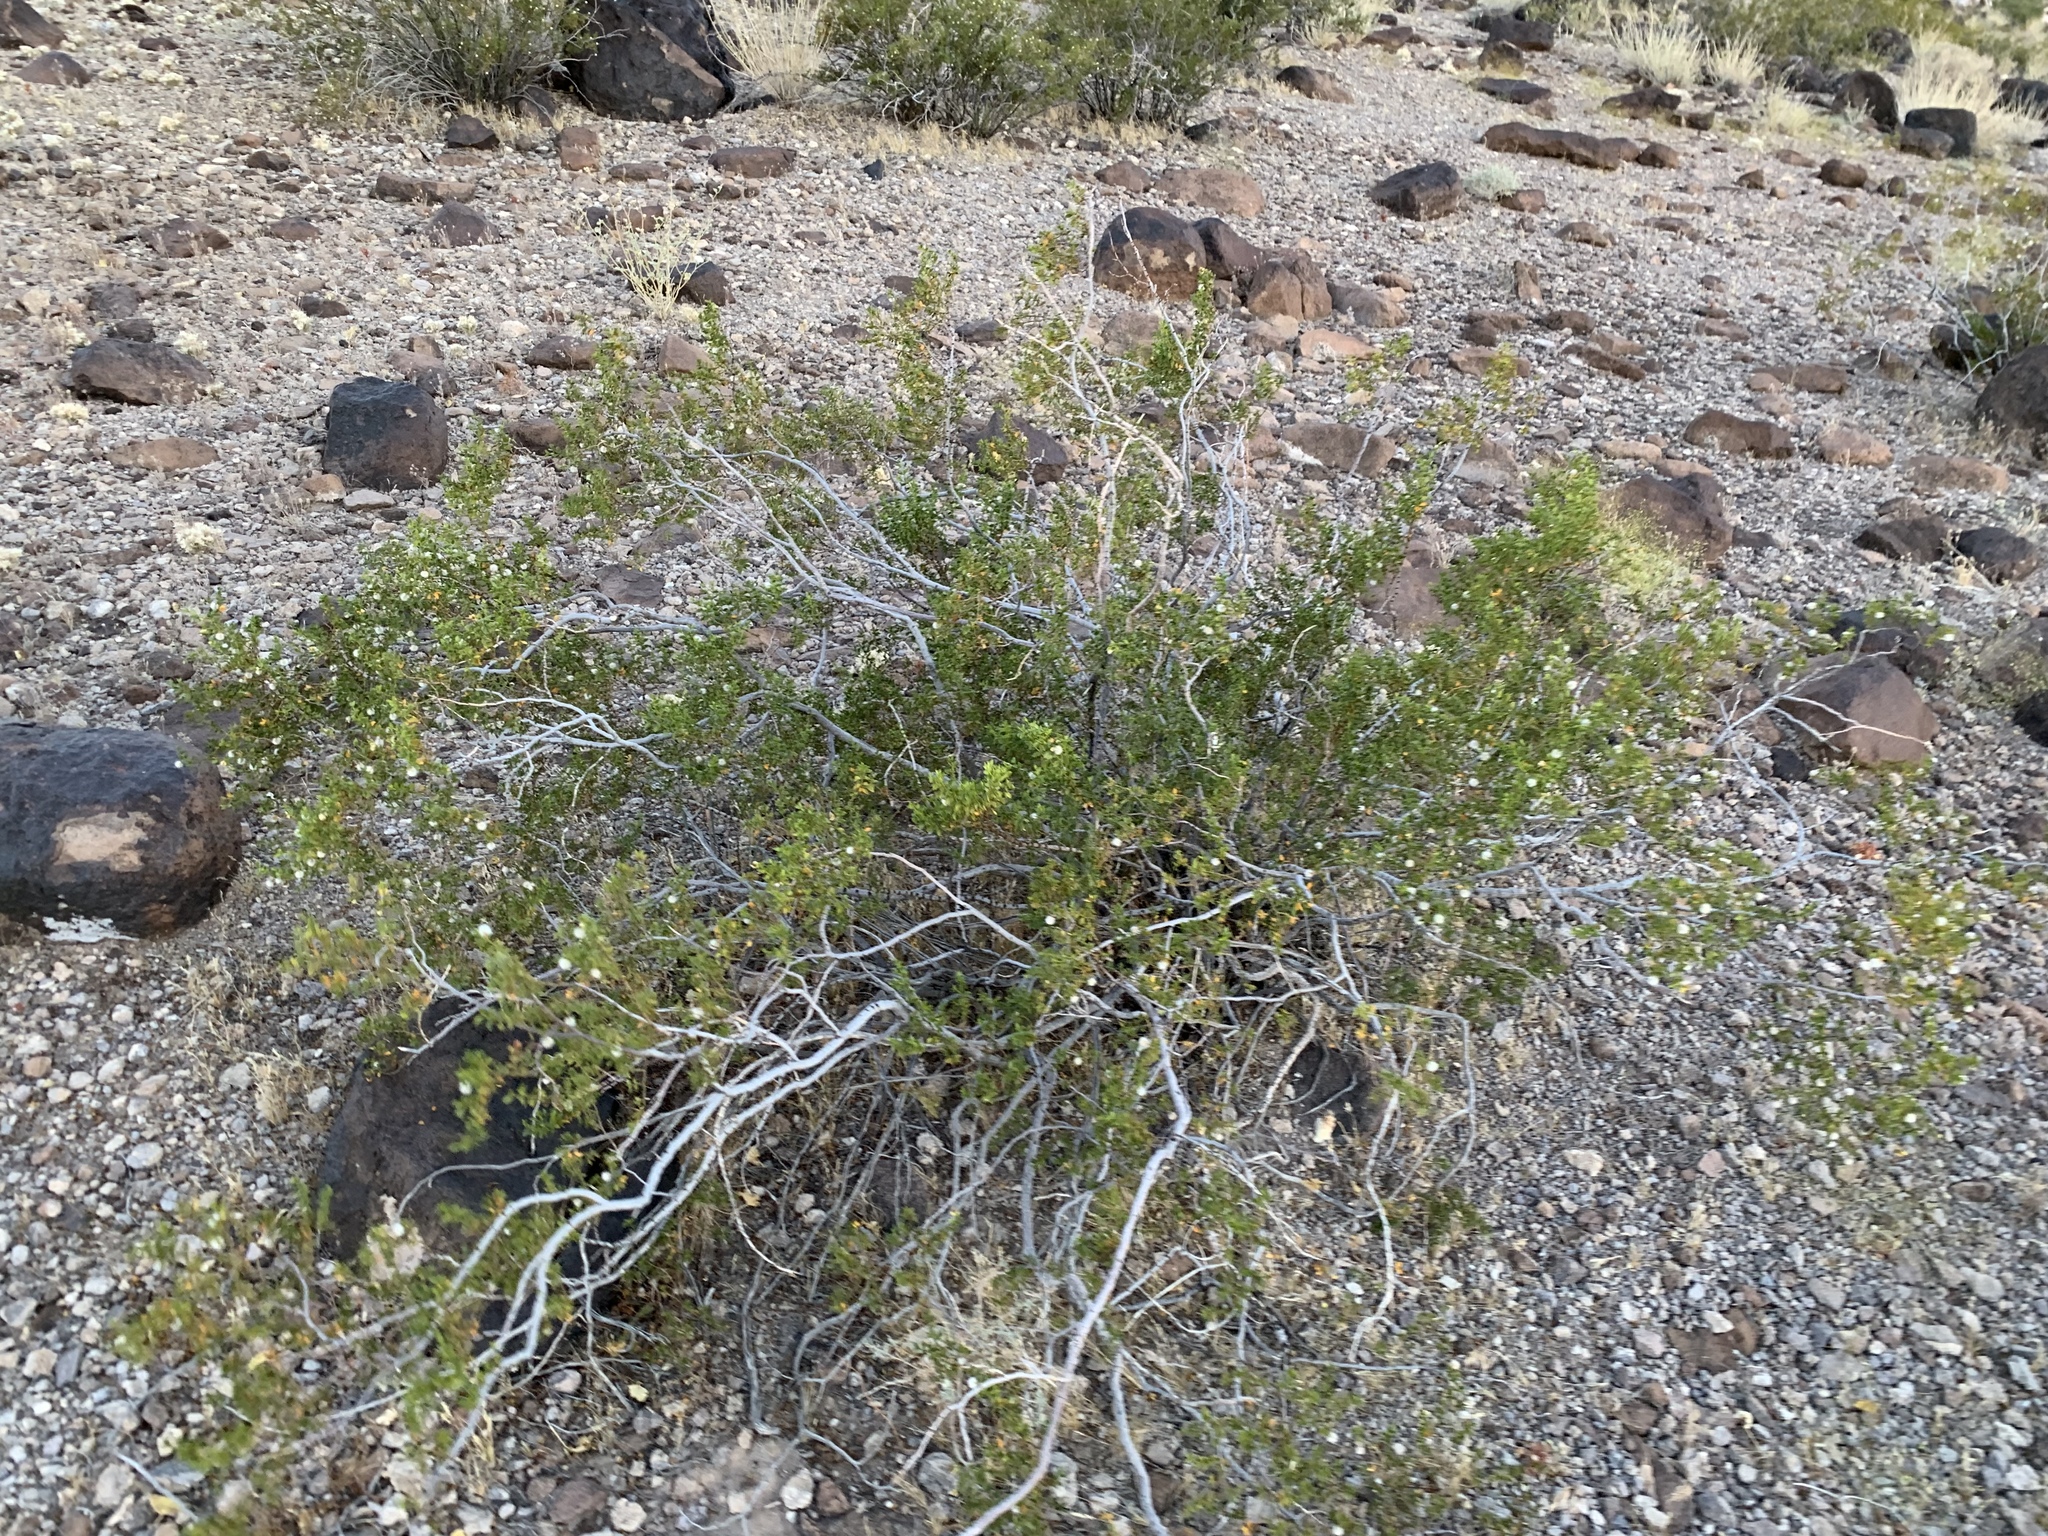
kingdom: Plantae
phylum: Tracheophyta
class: Magnoliopsida
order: Zygophyllales
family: Zygophyllaceae
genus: Larrea
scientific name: Larrea tridentata
